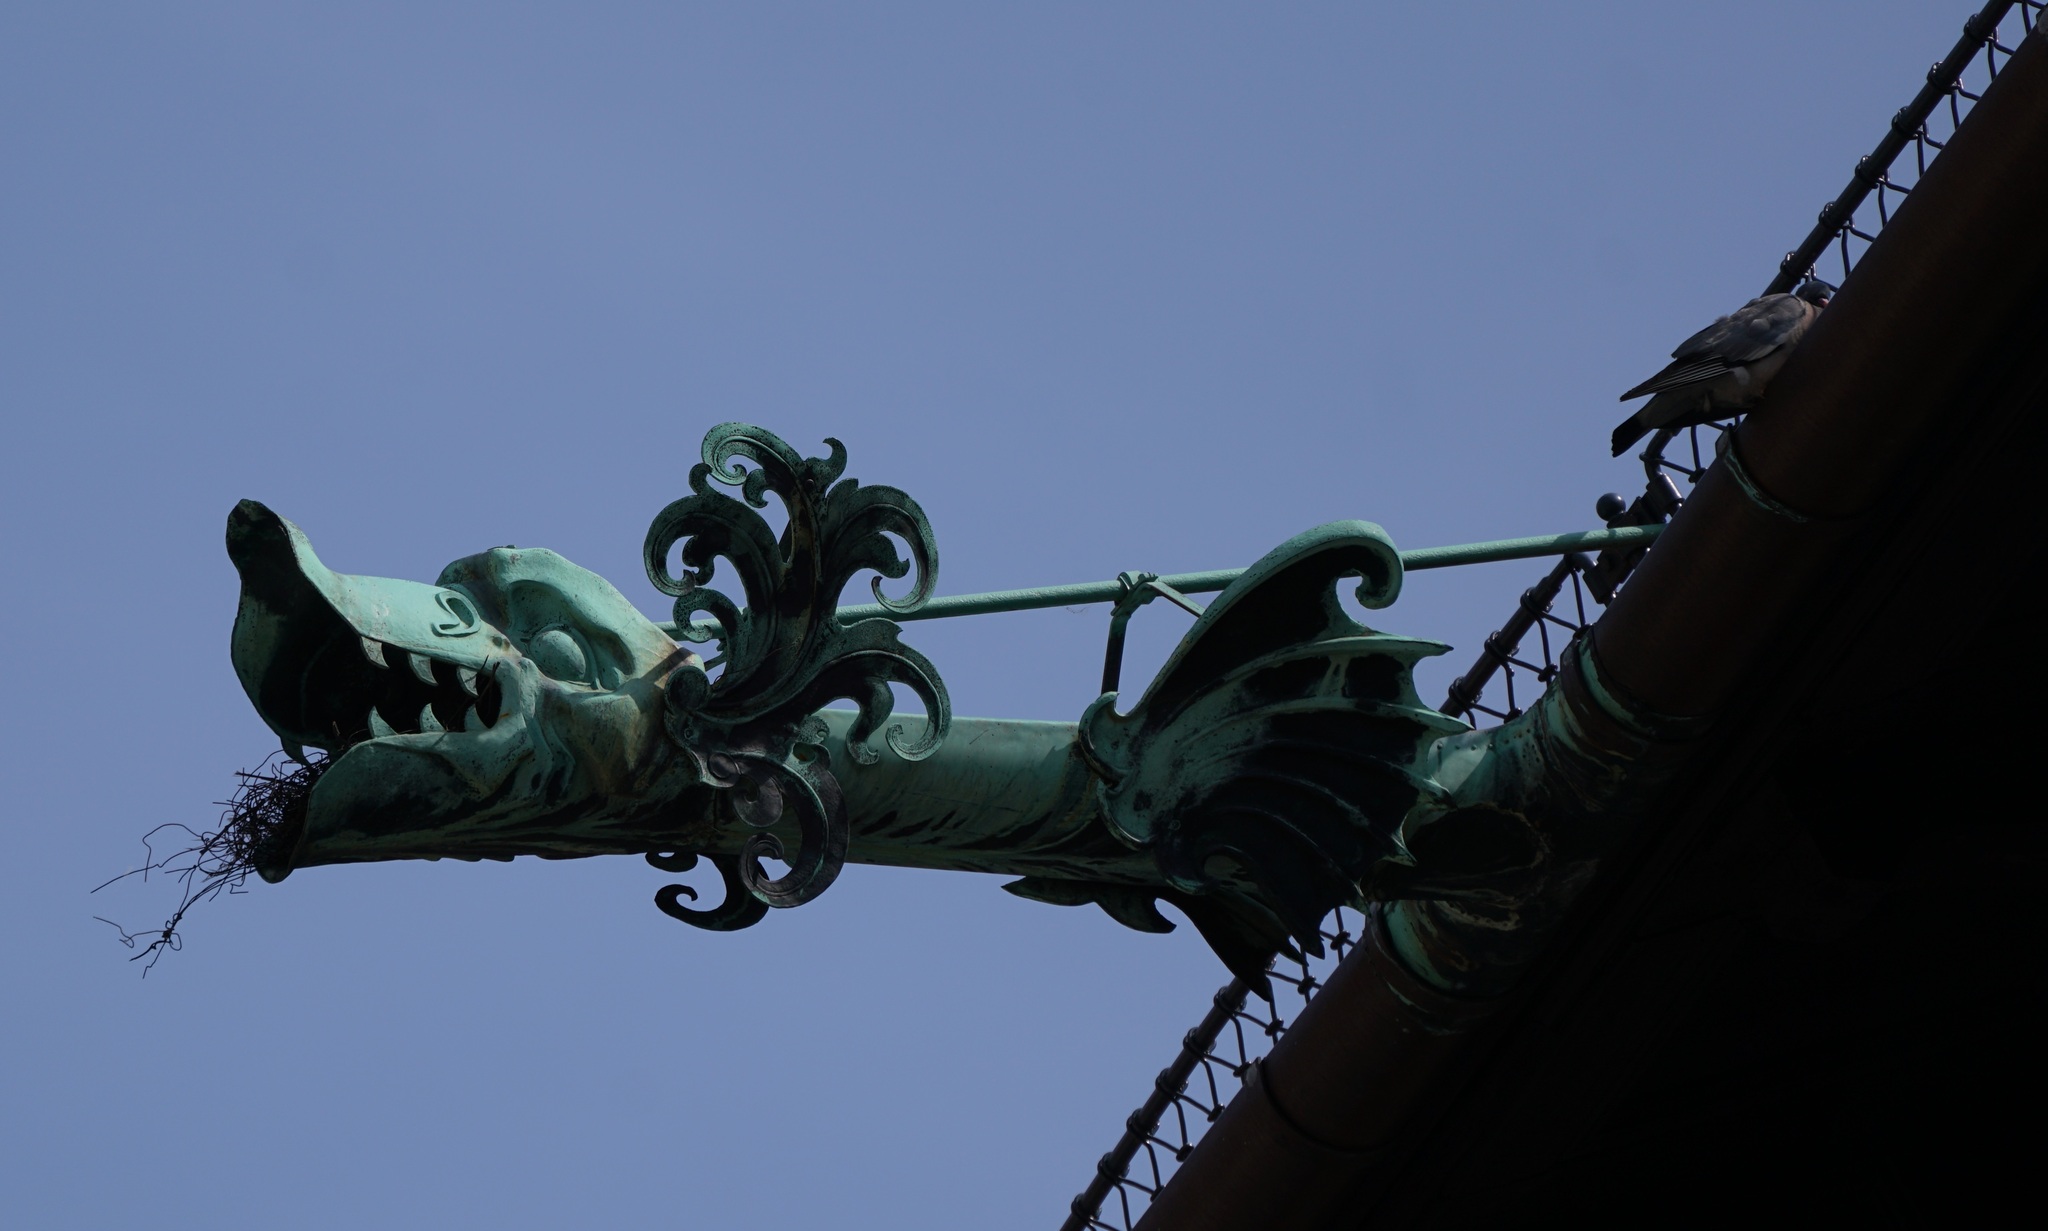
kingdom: Animalia
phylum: Chordata
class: Aves
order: Columbiformes
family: Columbidae
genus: Columba
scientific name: Columba palumbus
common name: Common wood pigeon
